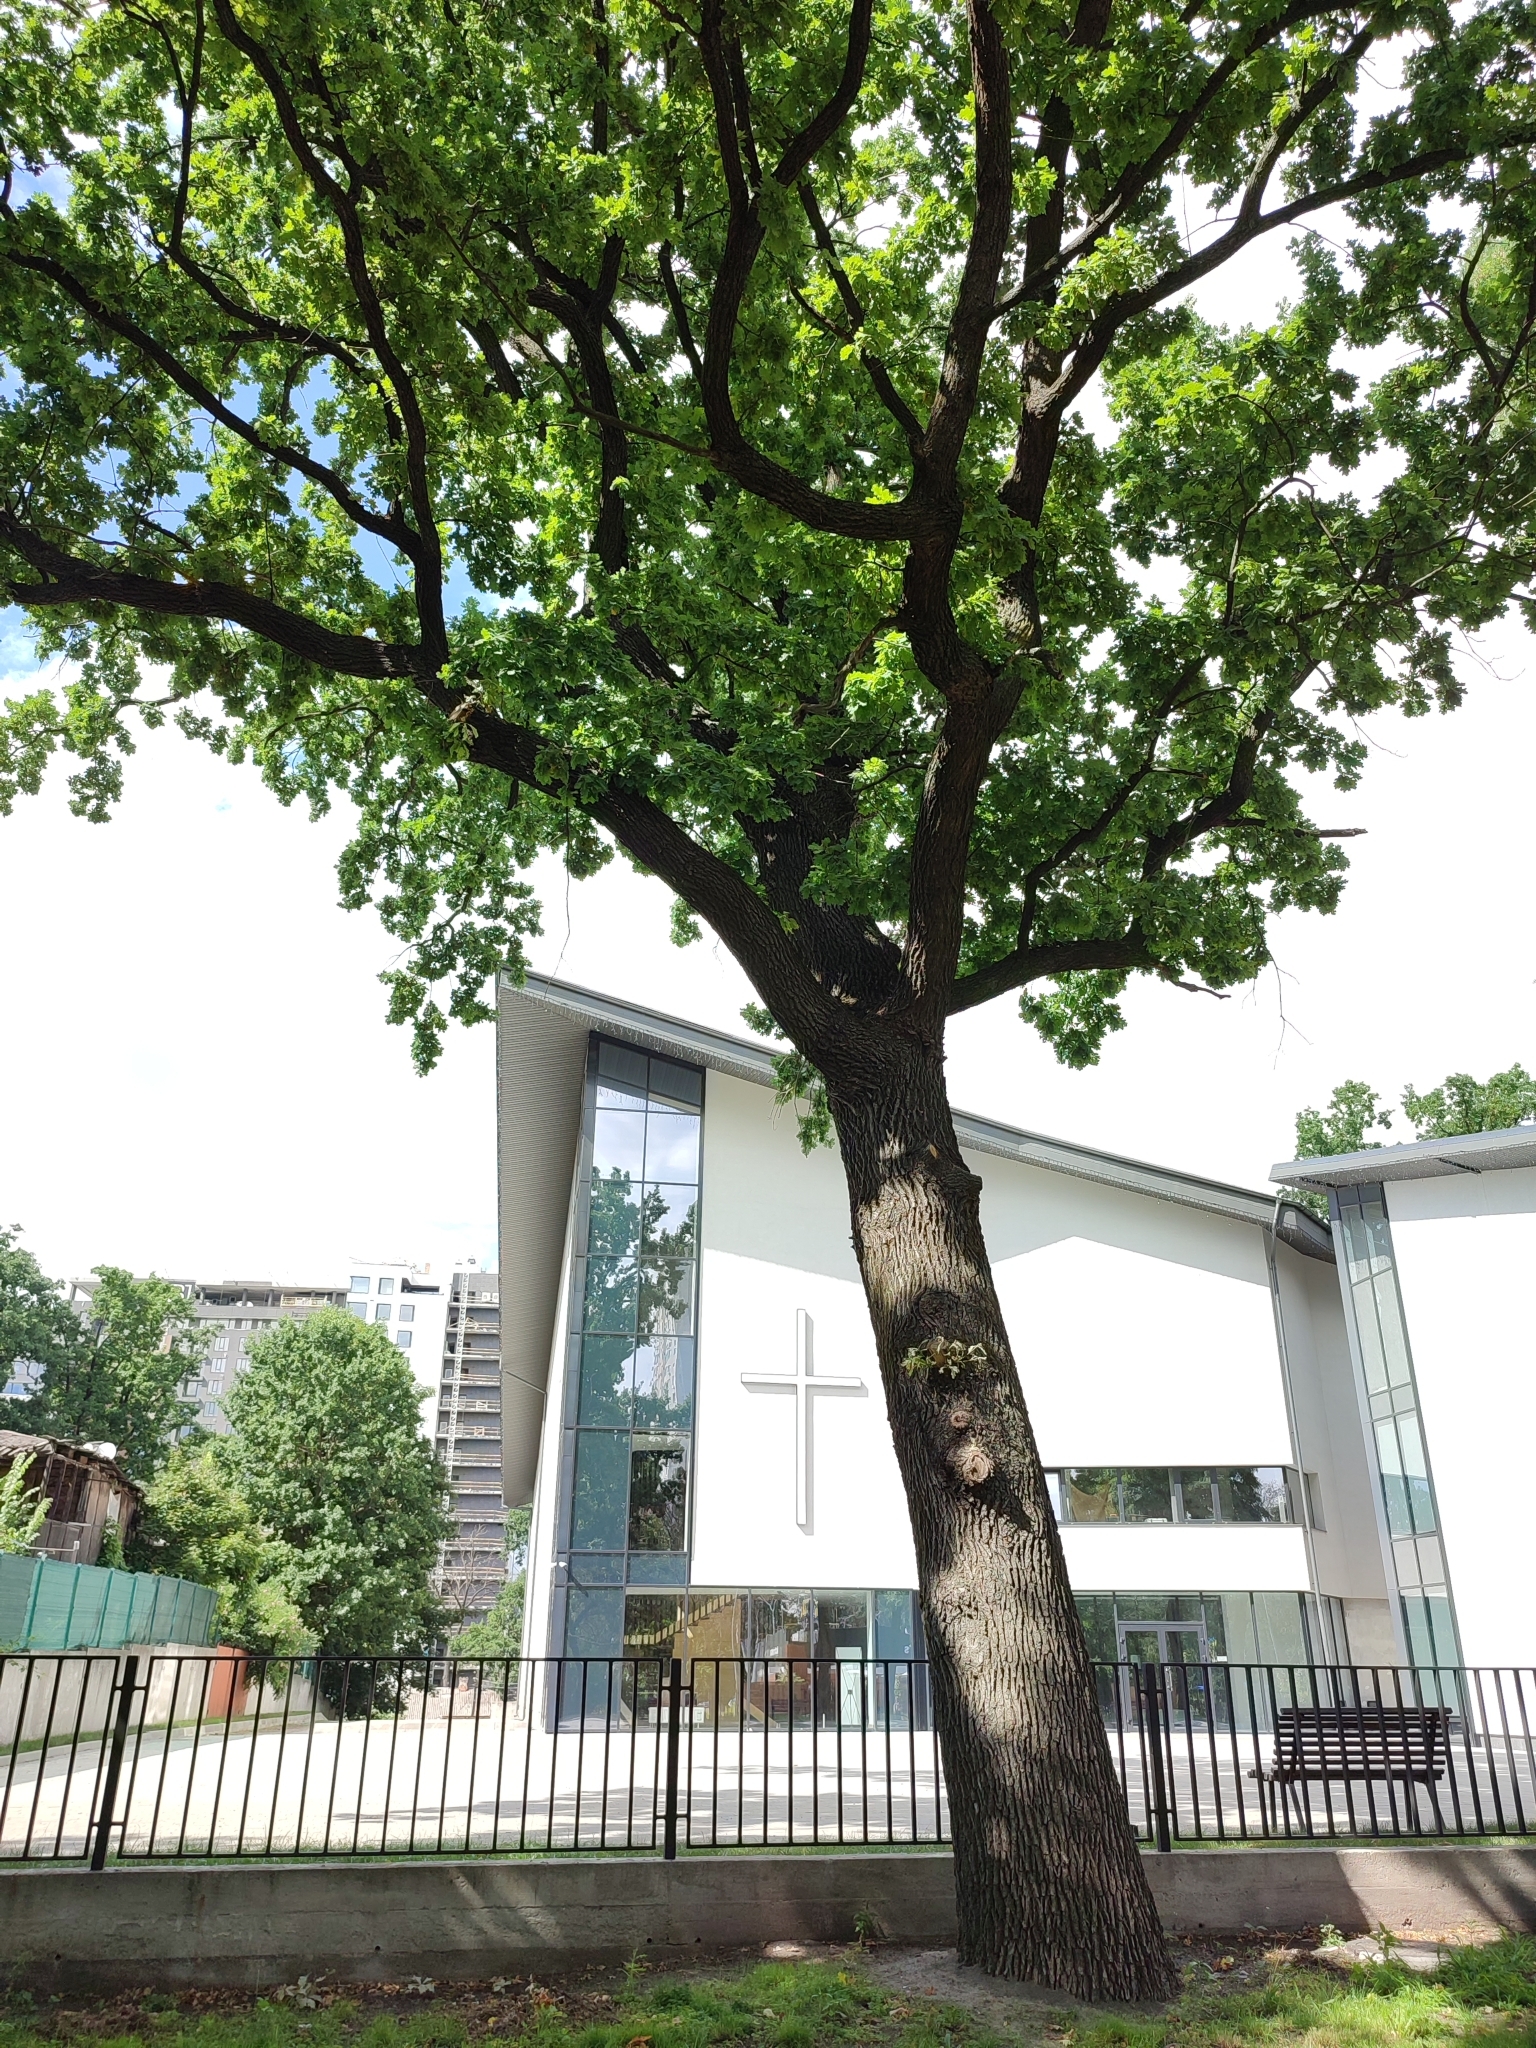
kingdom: Plantae
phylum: Tracheophyta
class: Magnoliopsida
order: Fagales
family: Fagaceae
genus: Quercus
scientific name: Quercus robur
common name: Pedunculate oak
